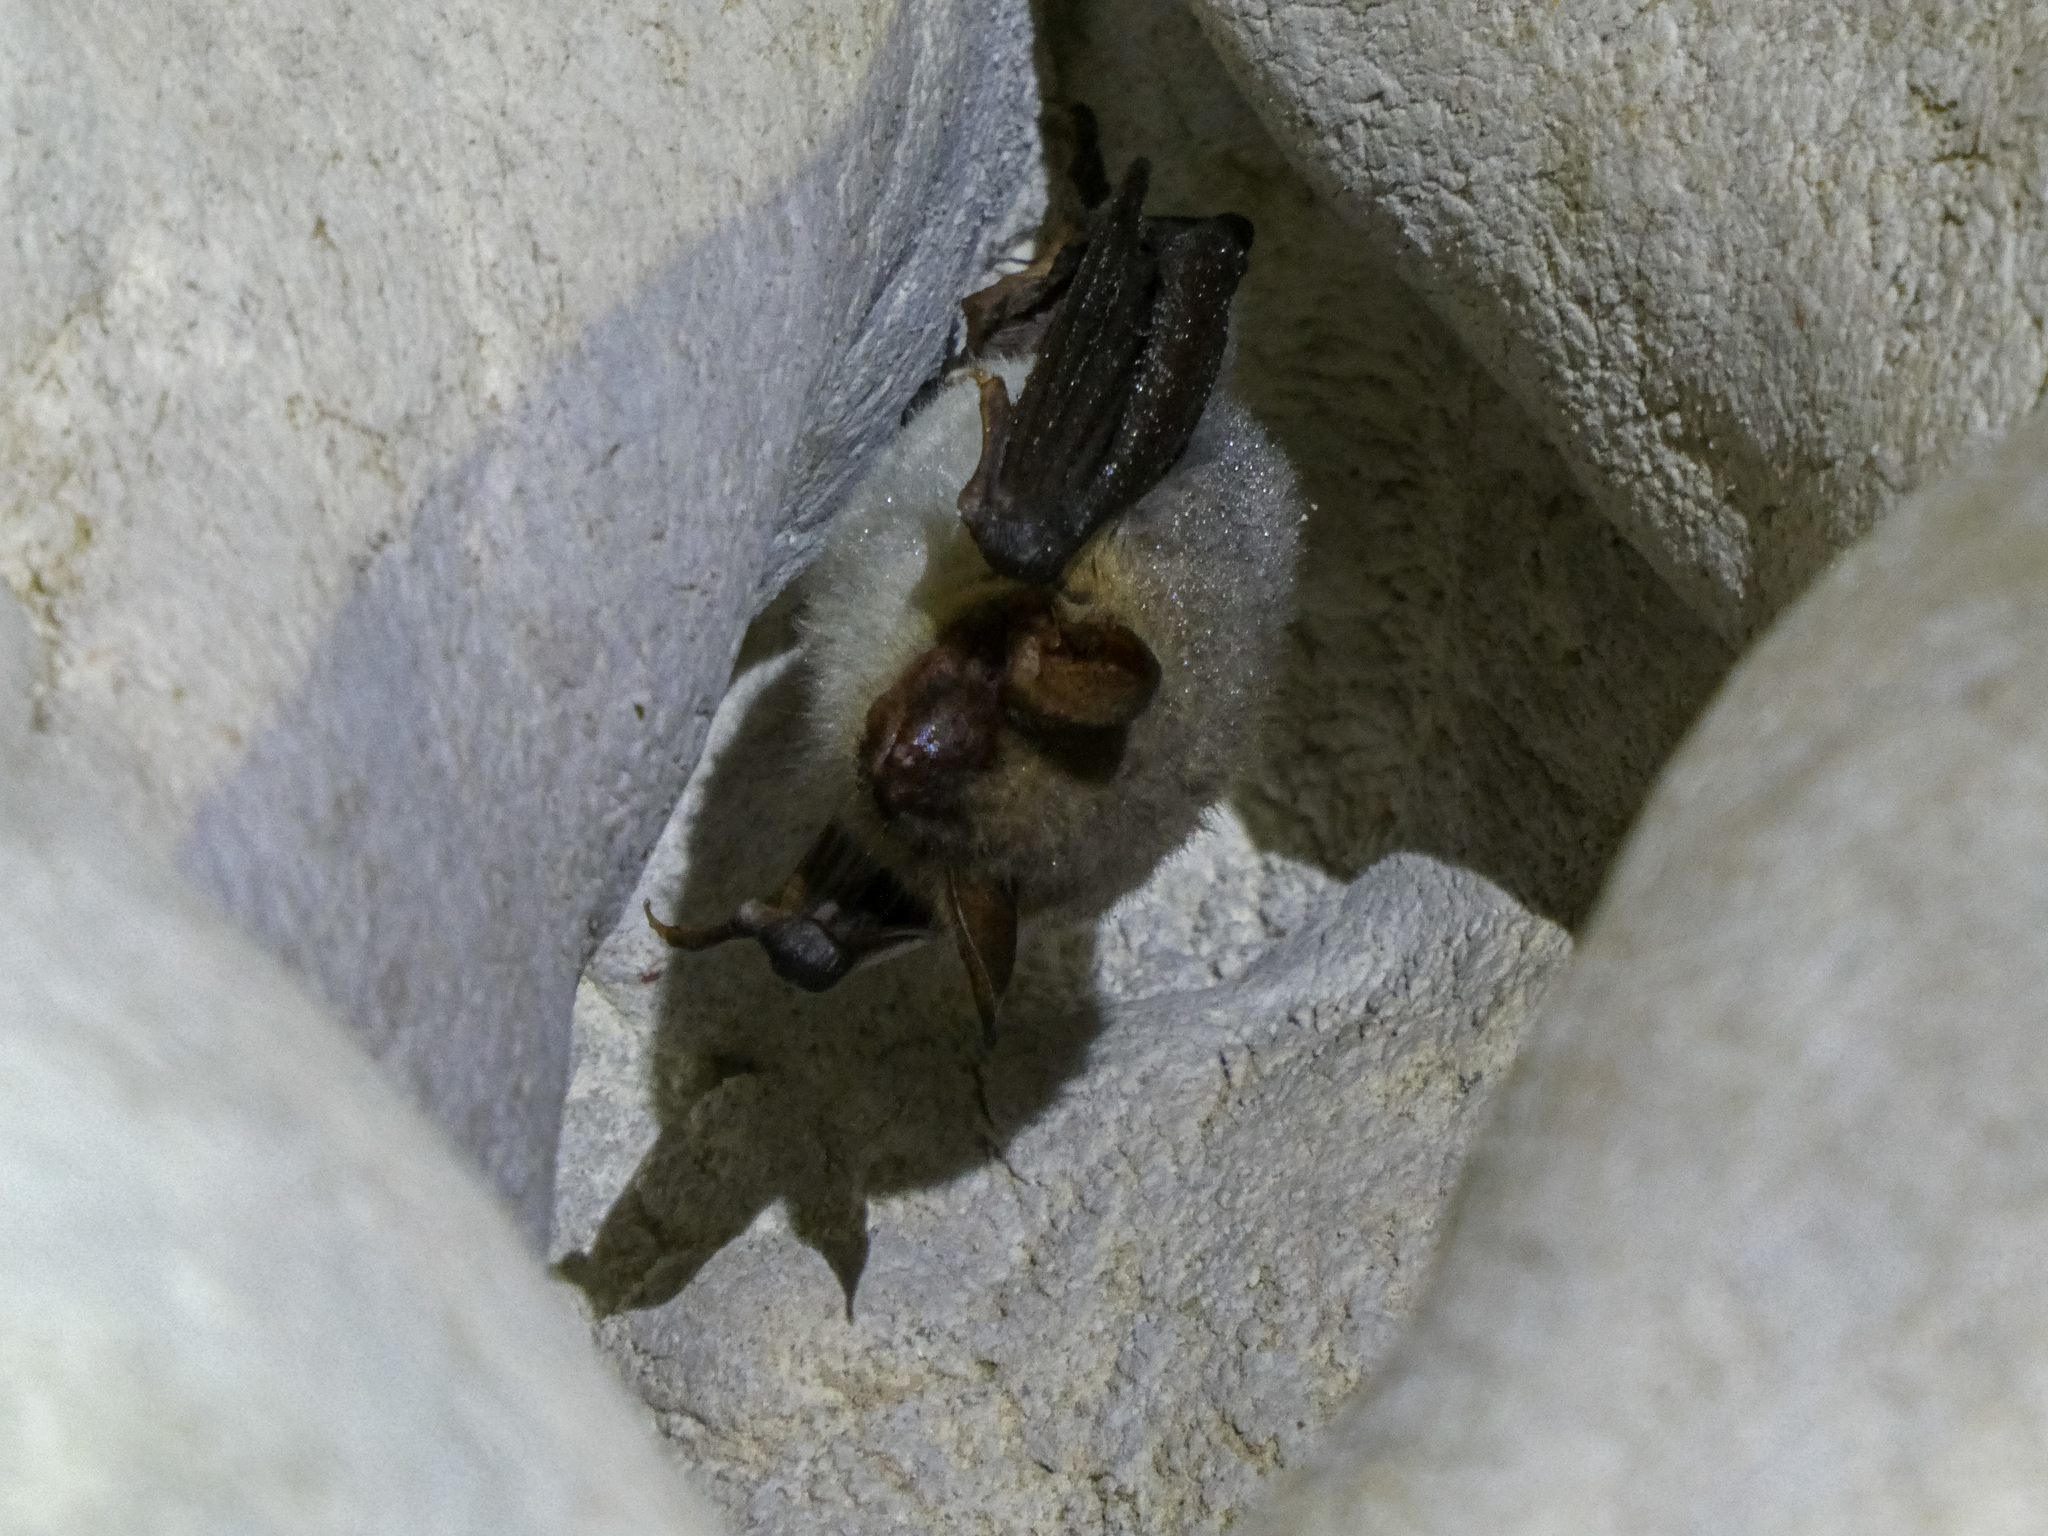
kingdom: Animalia
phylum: Chordata
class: Mammalia
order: Chiroptera
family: Vespertilionidae
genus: Myotis
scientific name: Myotis
